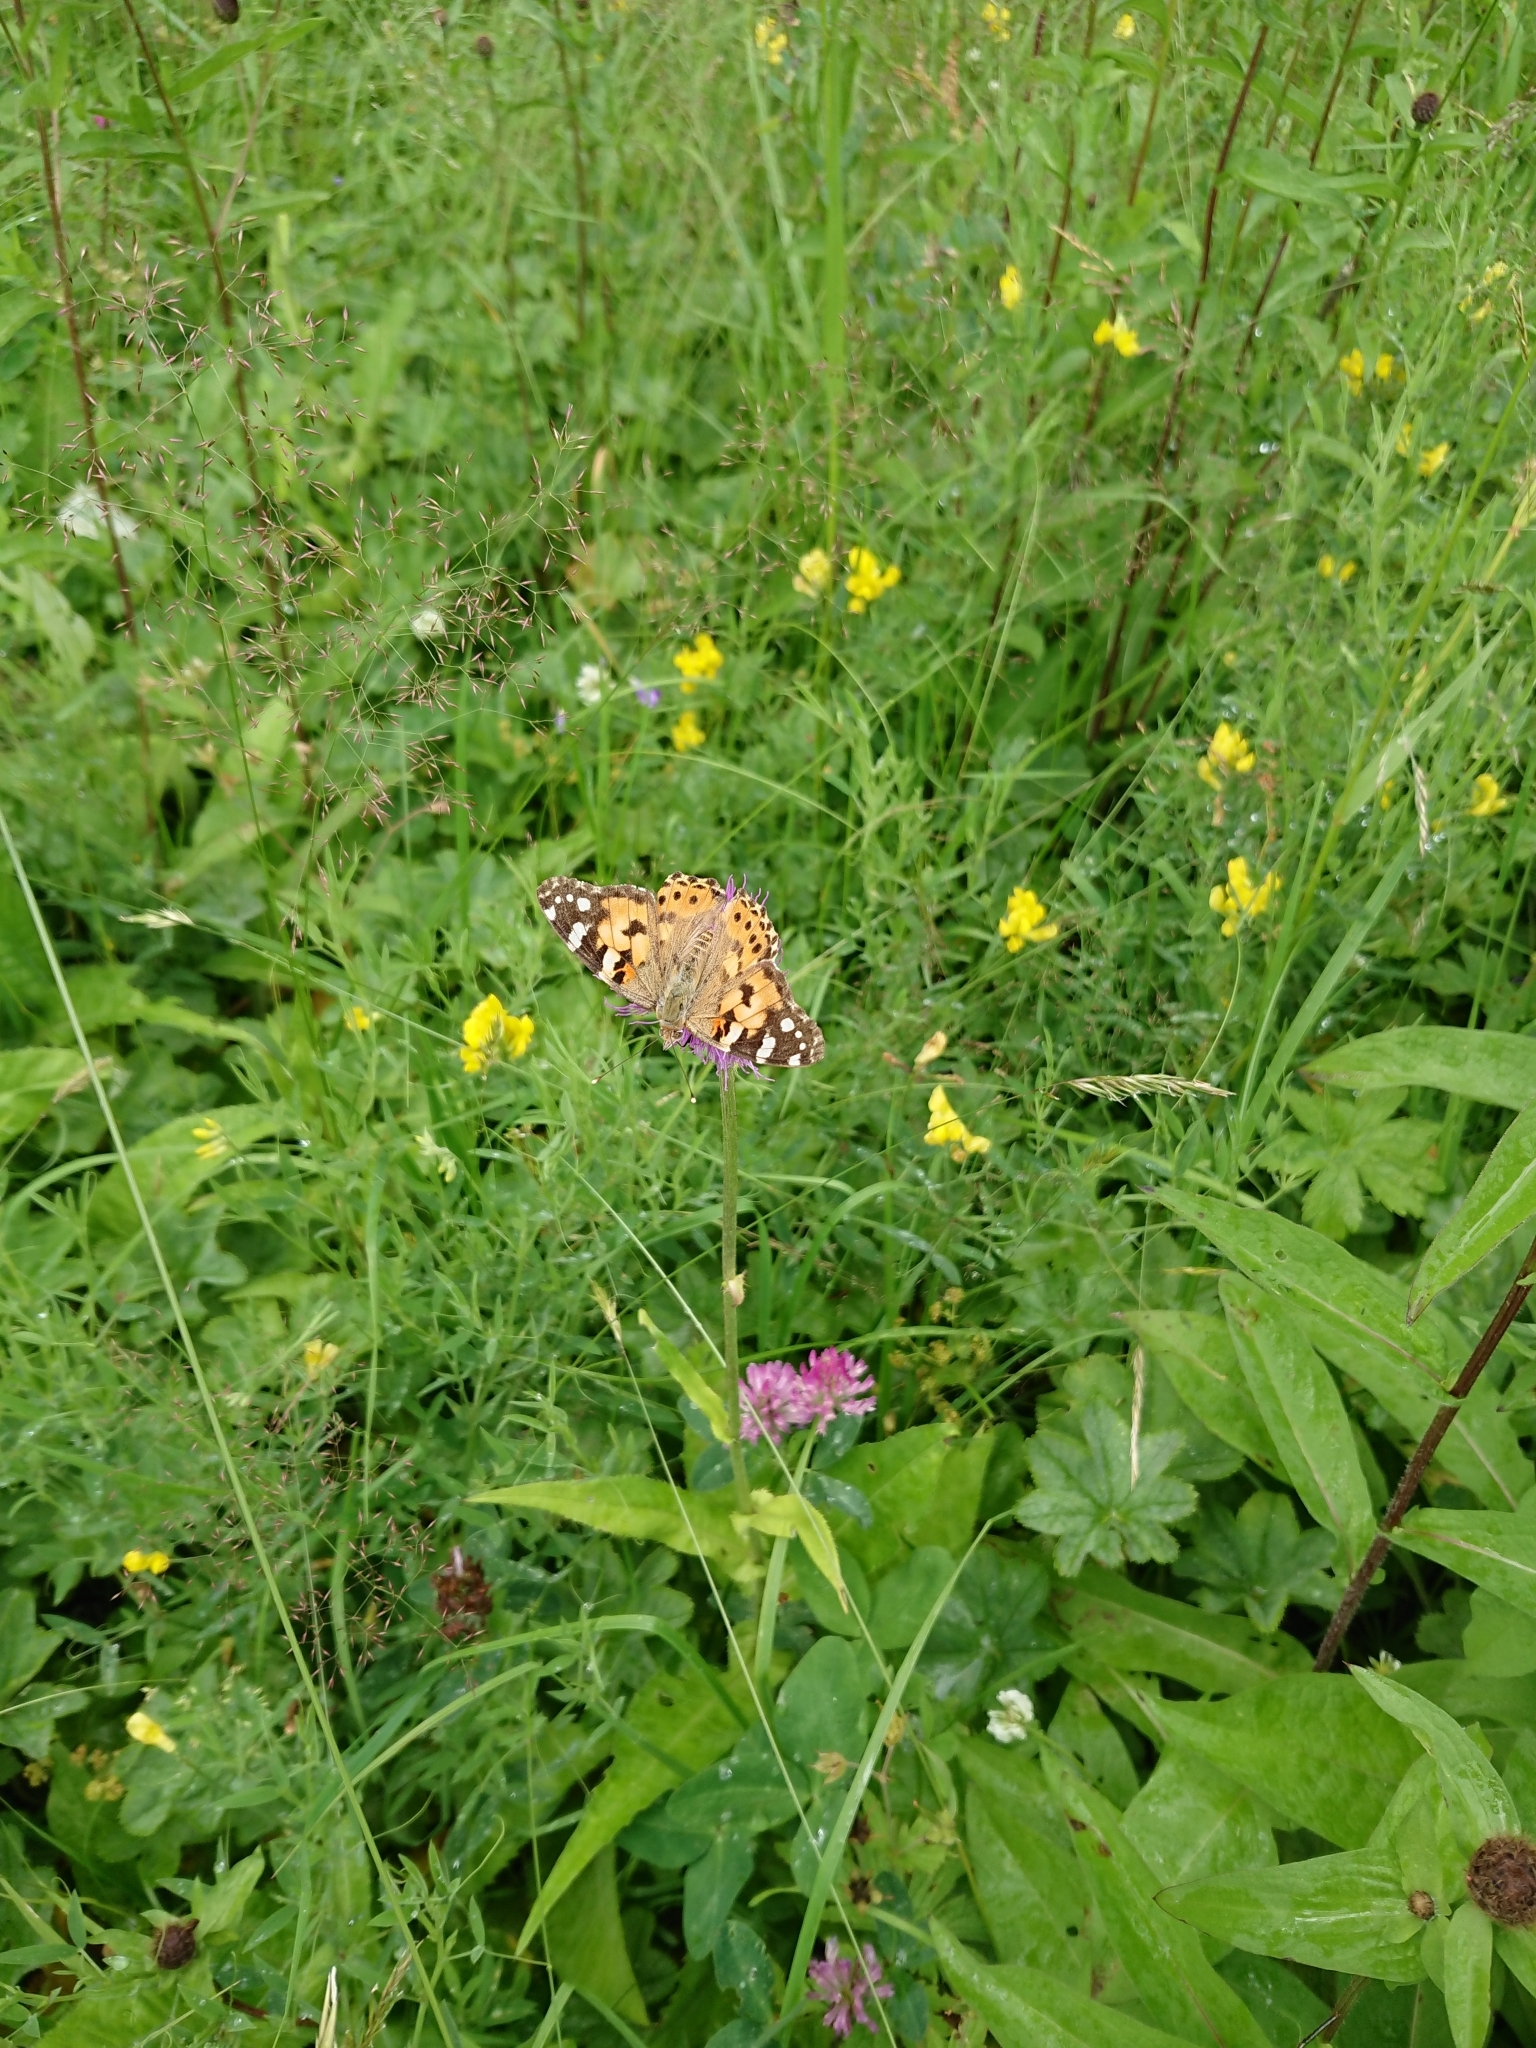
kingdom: Animalia
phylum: Arthropoda
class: Insecta
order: Lepidoptera
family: Nymphalidae
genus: Vanessa
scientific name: Vanessa cardui
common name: Painted lady
